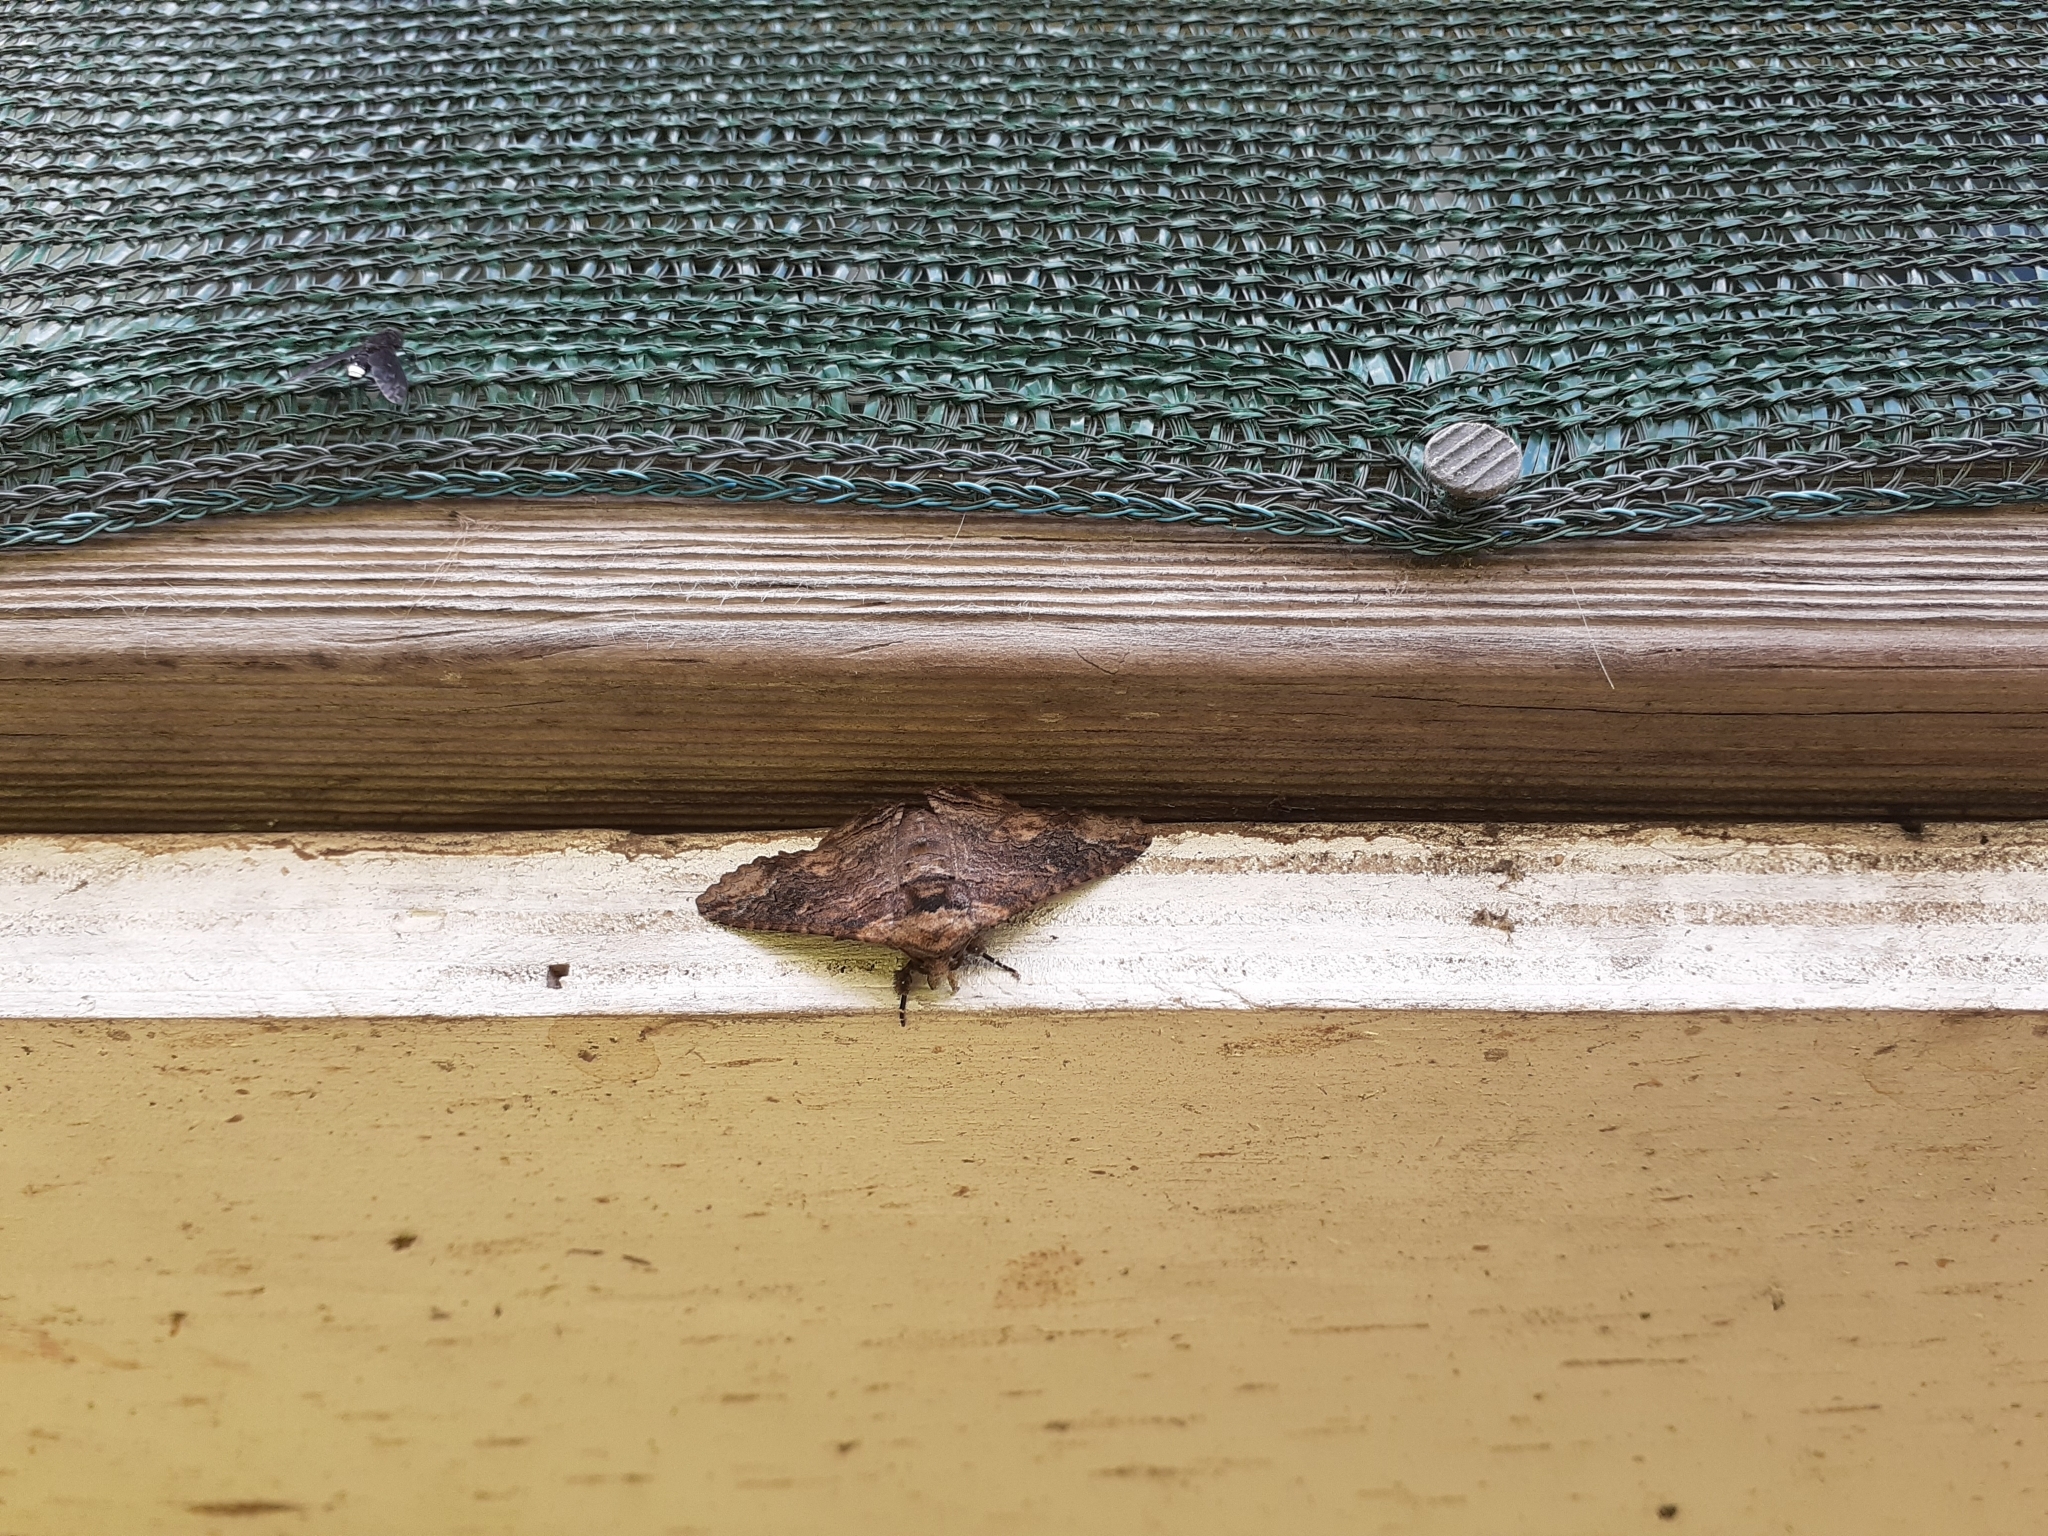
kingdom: Animalia
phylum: Arthropoda
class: Insecta
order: Lepidoptera
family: Erebidae
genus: Pericyma
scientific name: Pericyma cruegeri
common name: Poinciana looper
